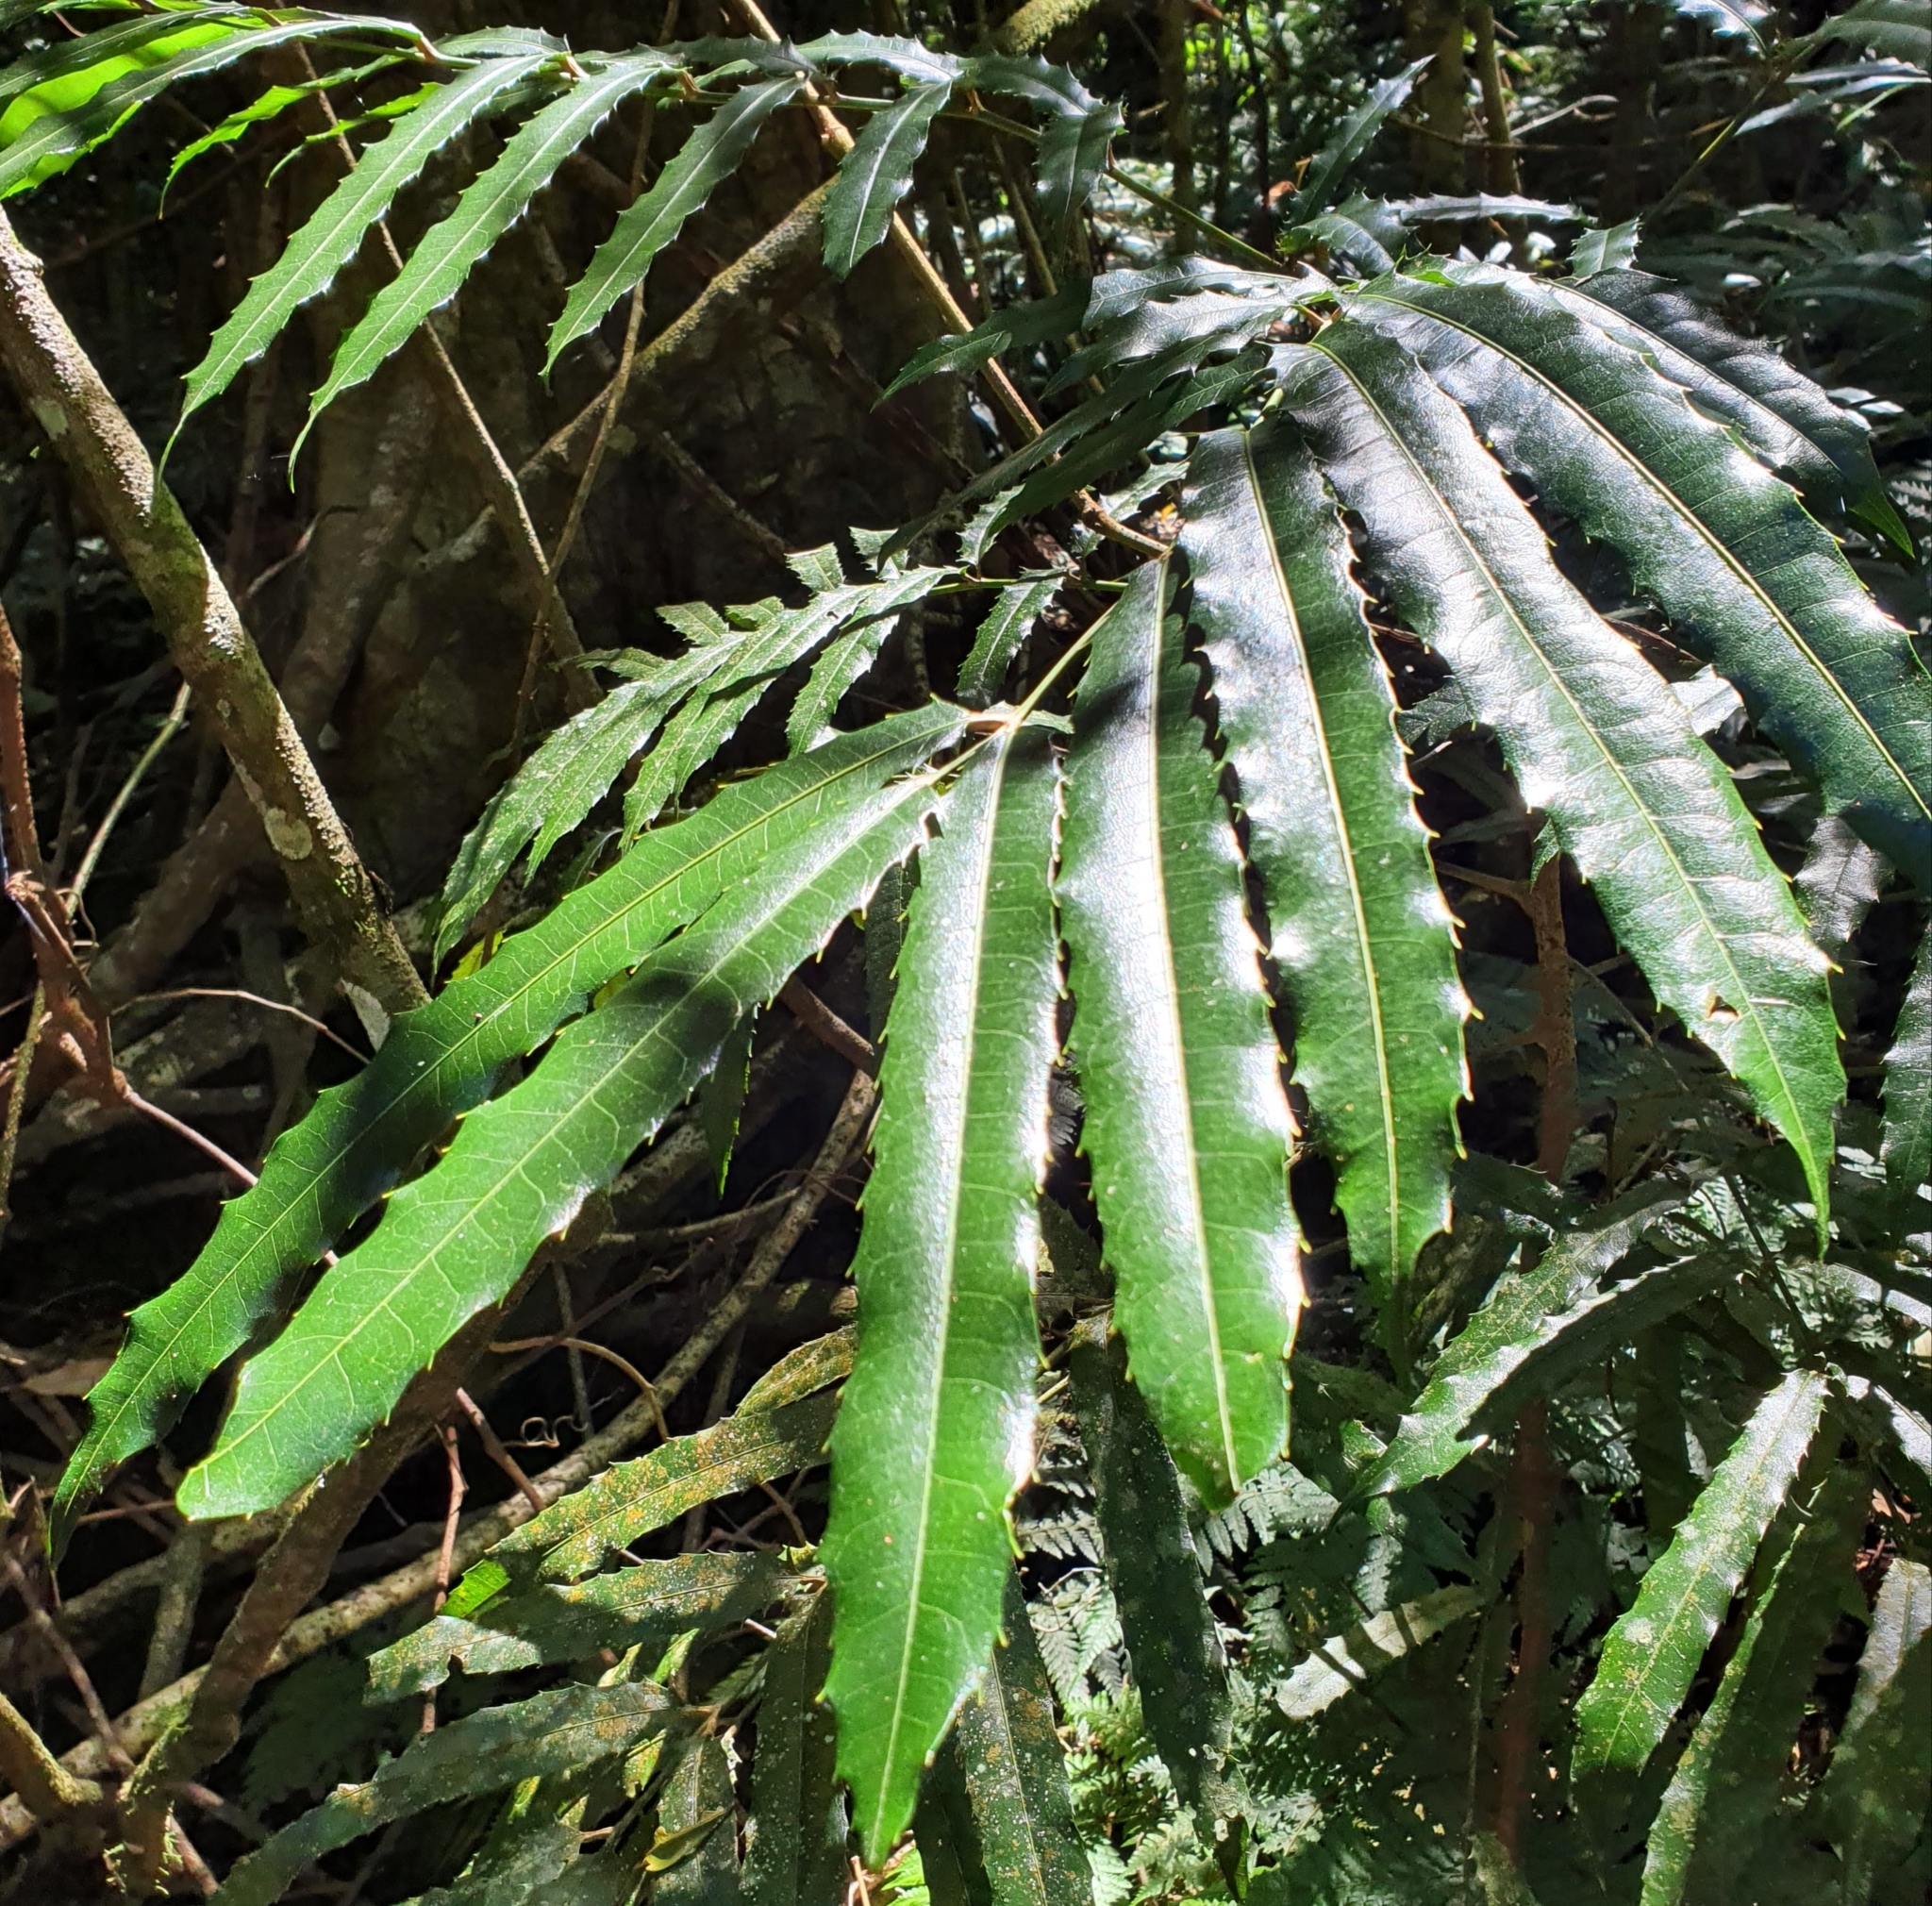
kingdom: Plantae
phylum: Tracheophyta
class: Magnoliopsida
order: Brassicales
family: Akaniaceae
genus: Akania
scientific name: Akania bidwillii
